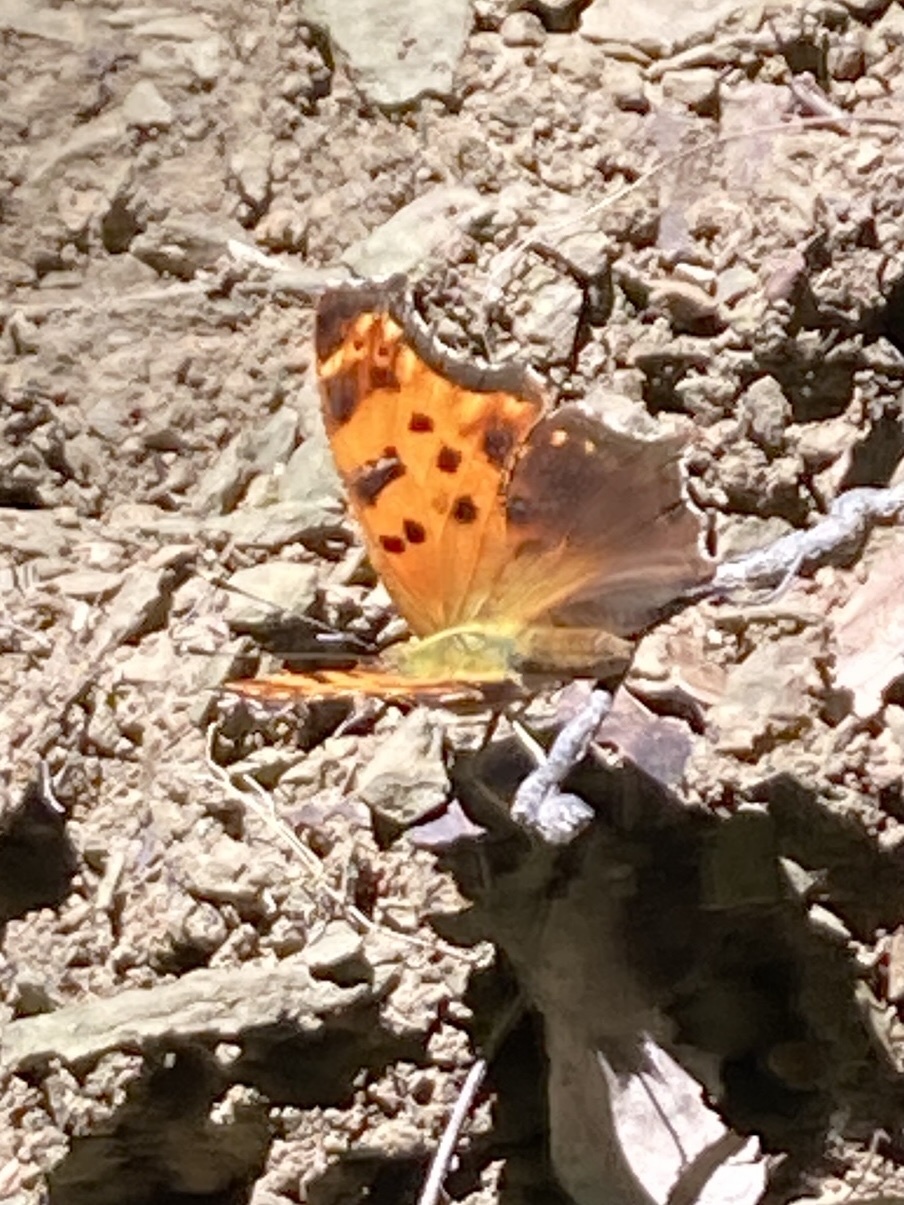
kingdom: Animalia
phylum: Arthropoda
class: Insecta
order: Lepidoptera
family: Nymphalidae
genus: Polygonia
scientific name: Polygonia comma
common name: Eastern comma
